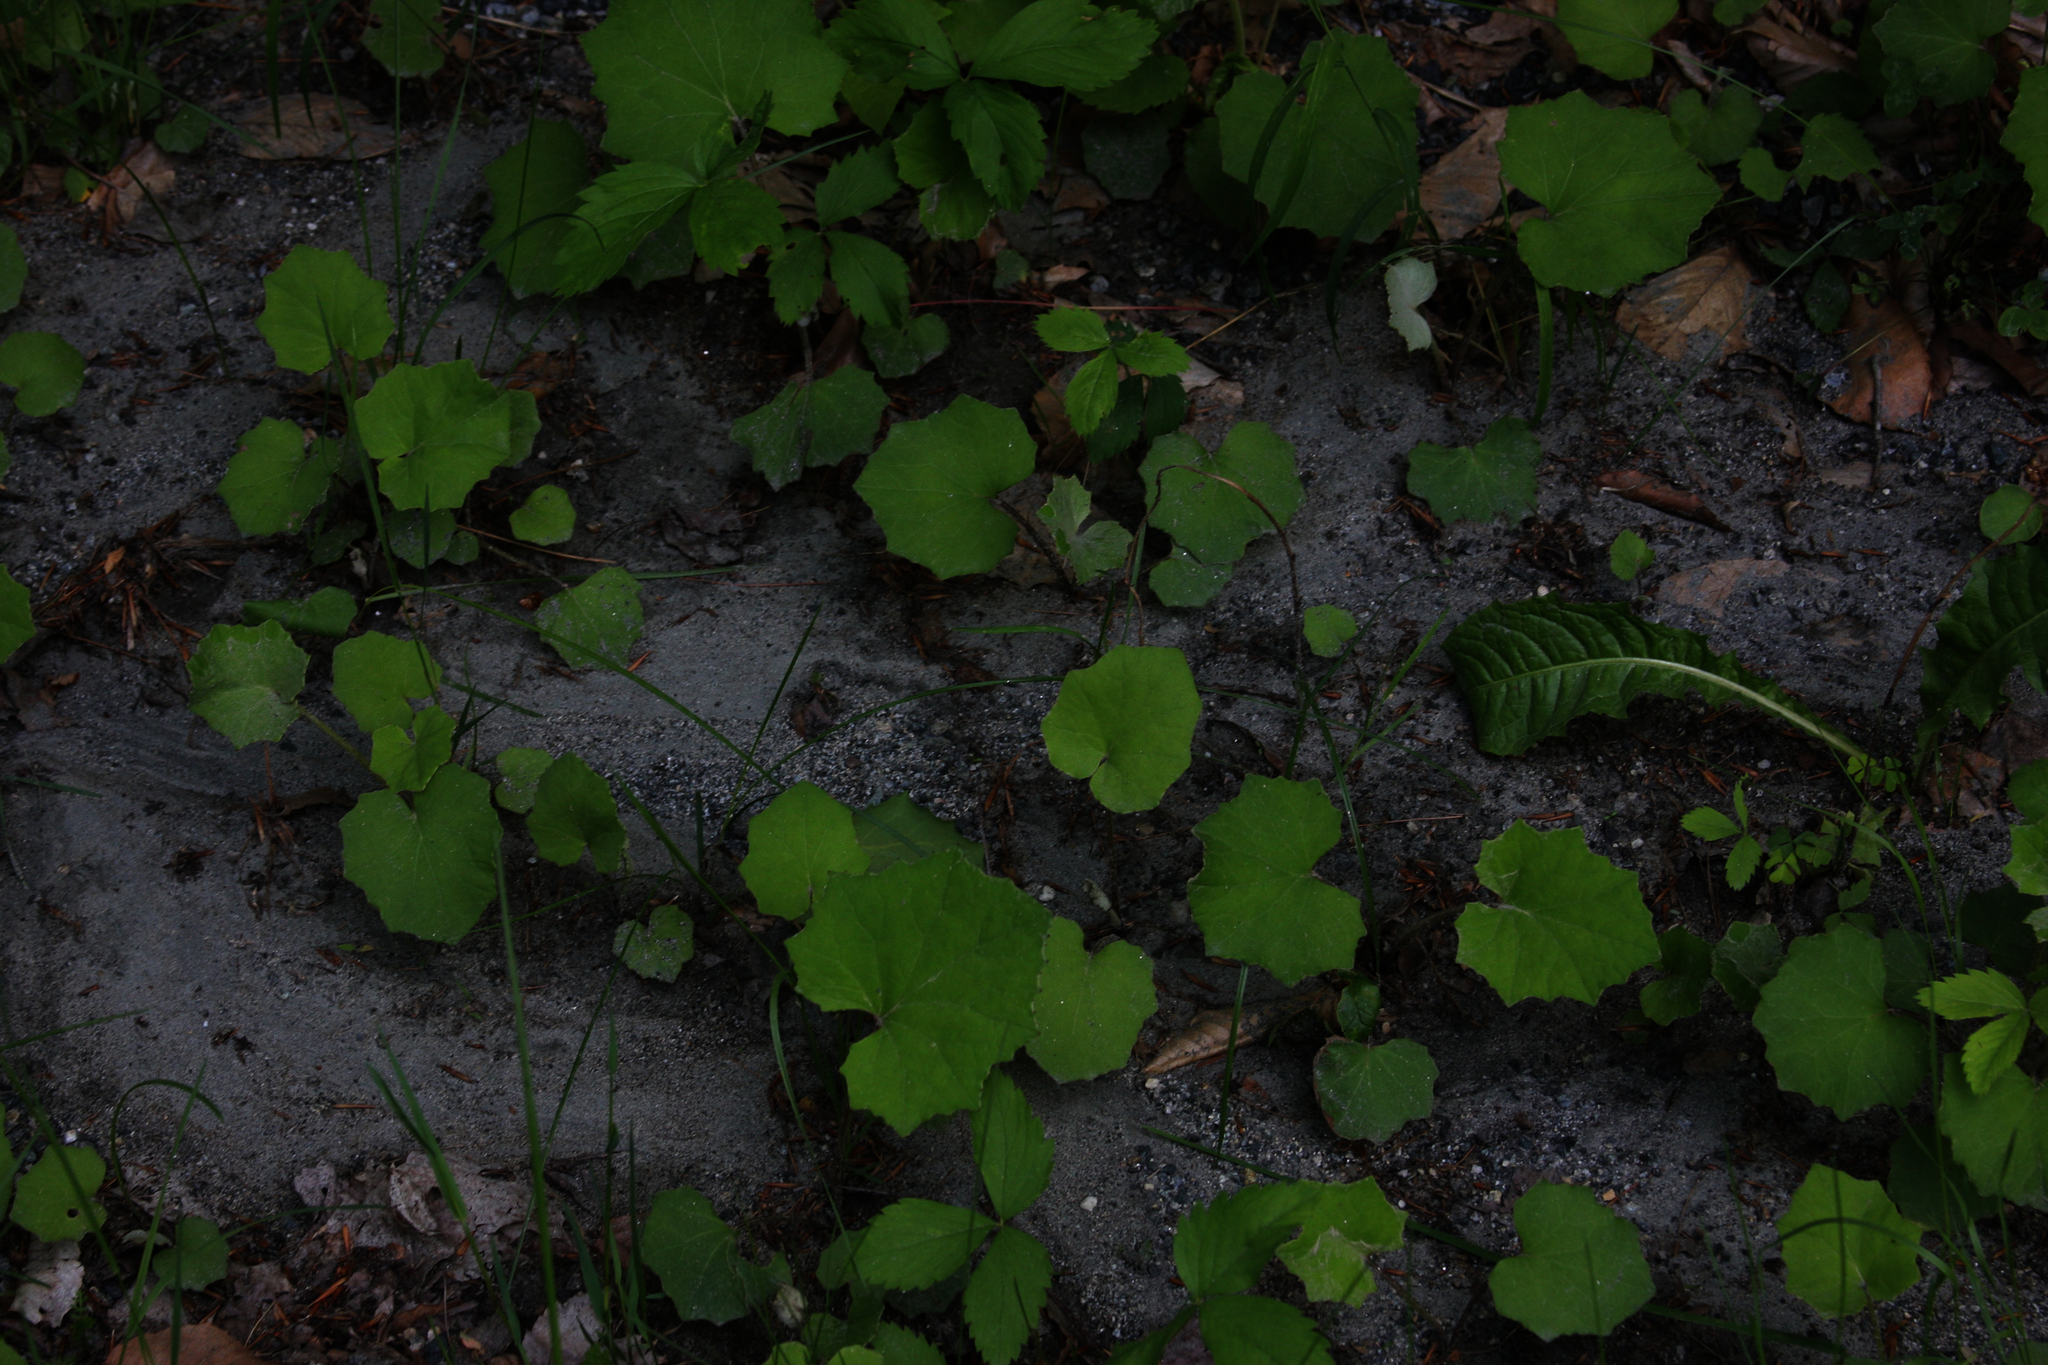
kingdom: Plantae
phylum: Tracheophyta
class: Magnoliopsida
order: Asterales
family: Asteraceae
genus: Taraxacum
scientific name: Taraxacum officinale
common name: Common dandelion
